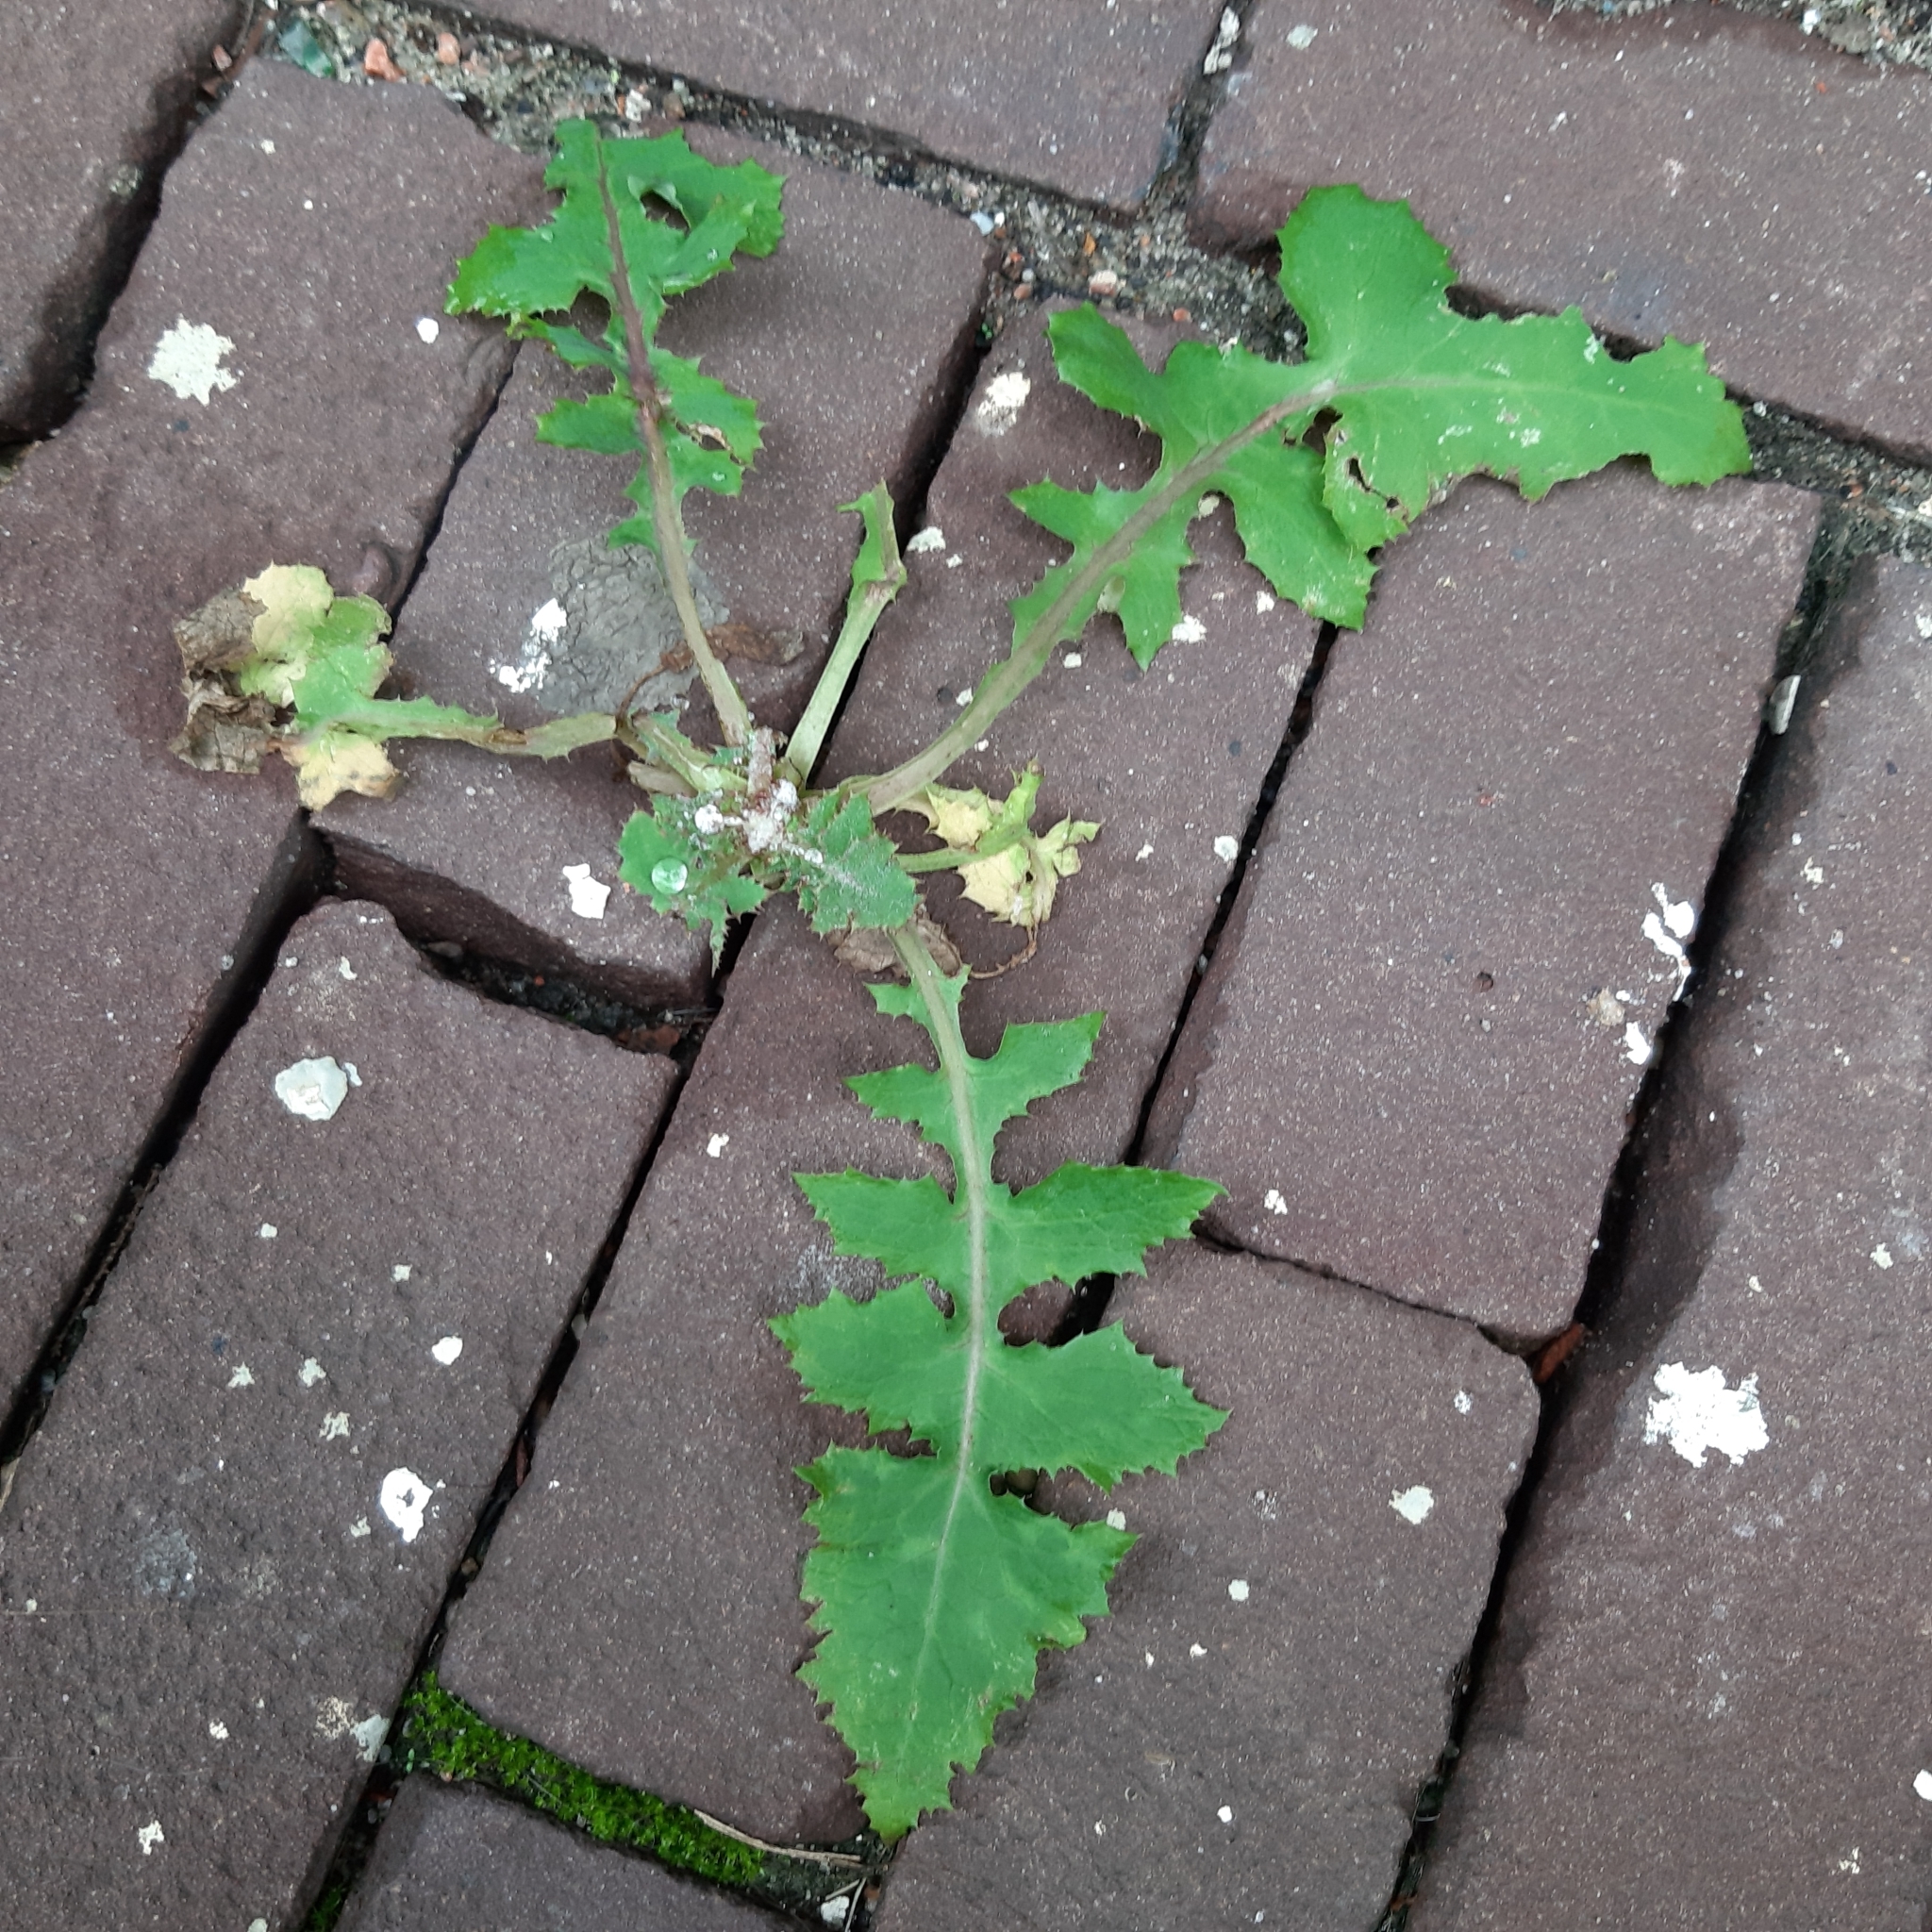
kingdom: Plantae
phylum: Tracheophyta
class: Magnoliopsida
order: Asterales
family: Asteraceae
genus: Sonchus
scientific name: Sonchus oleraceus
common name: Common sowthistle
